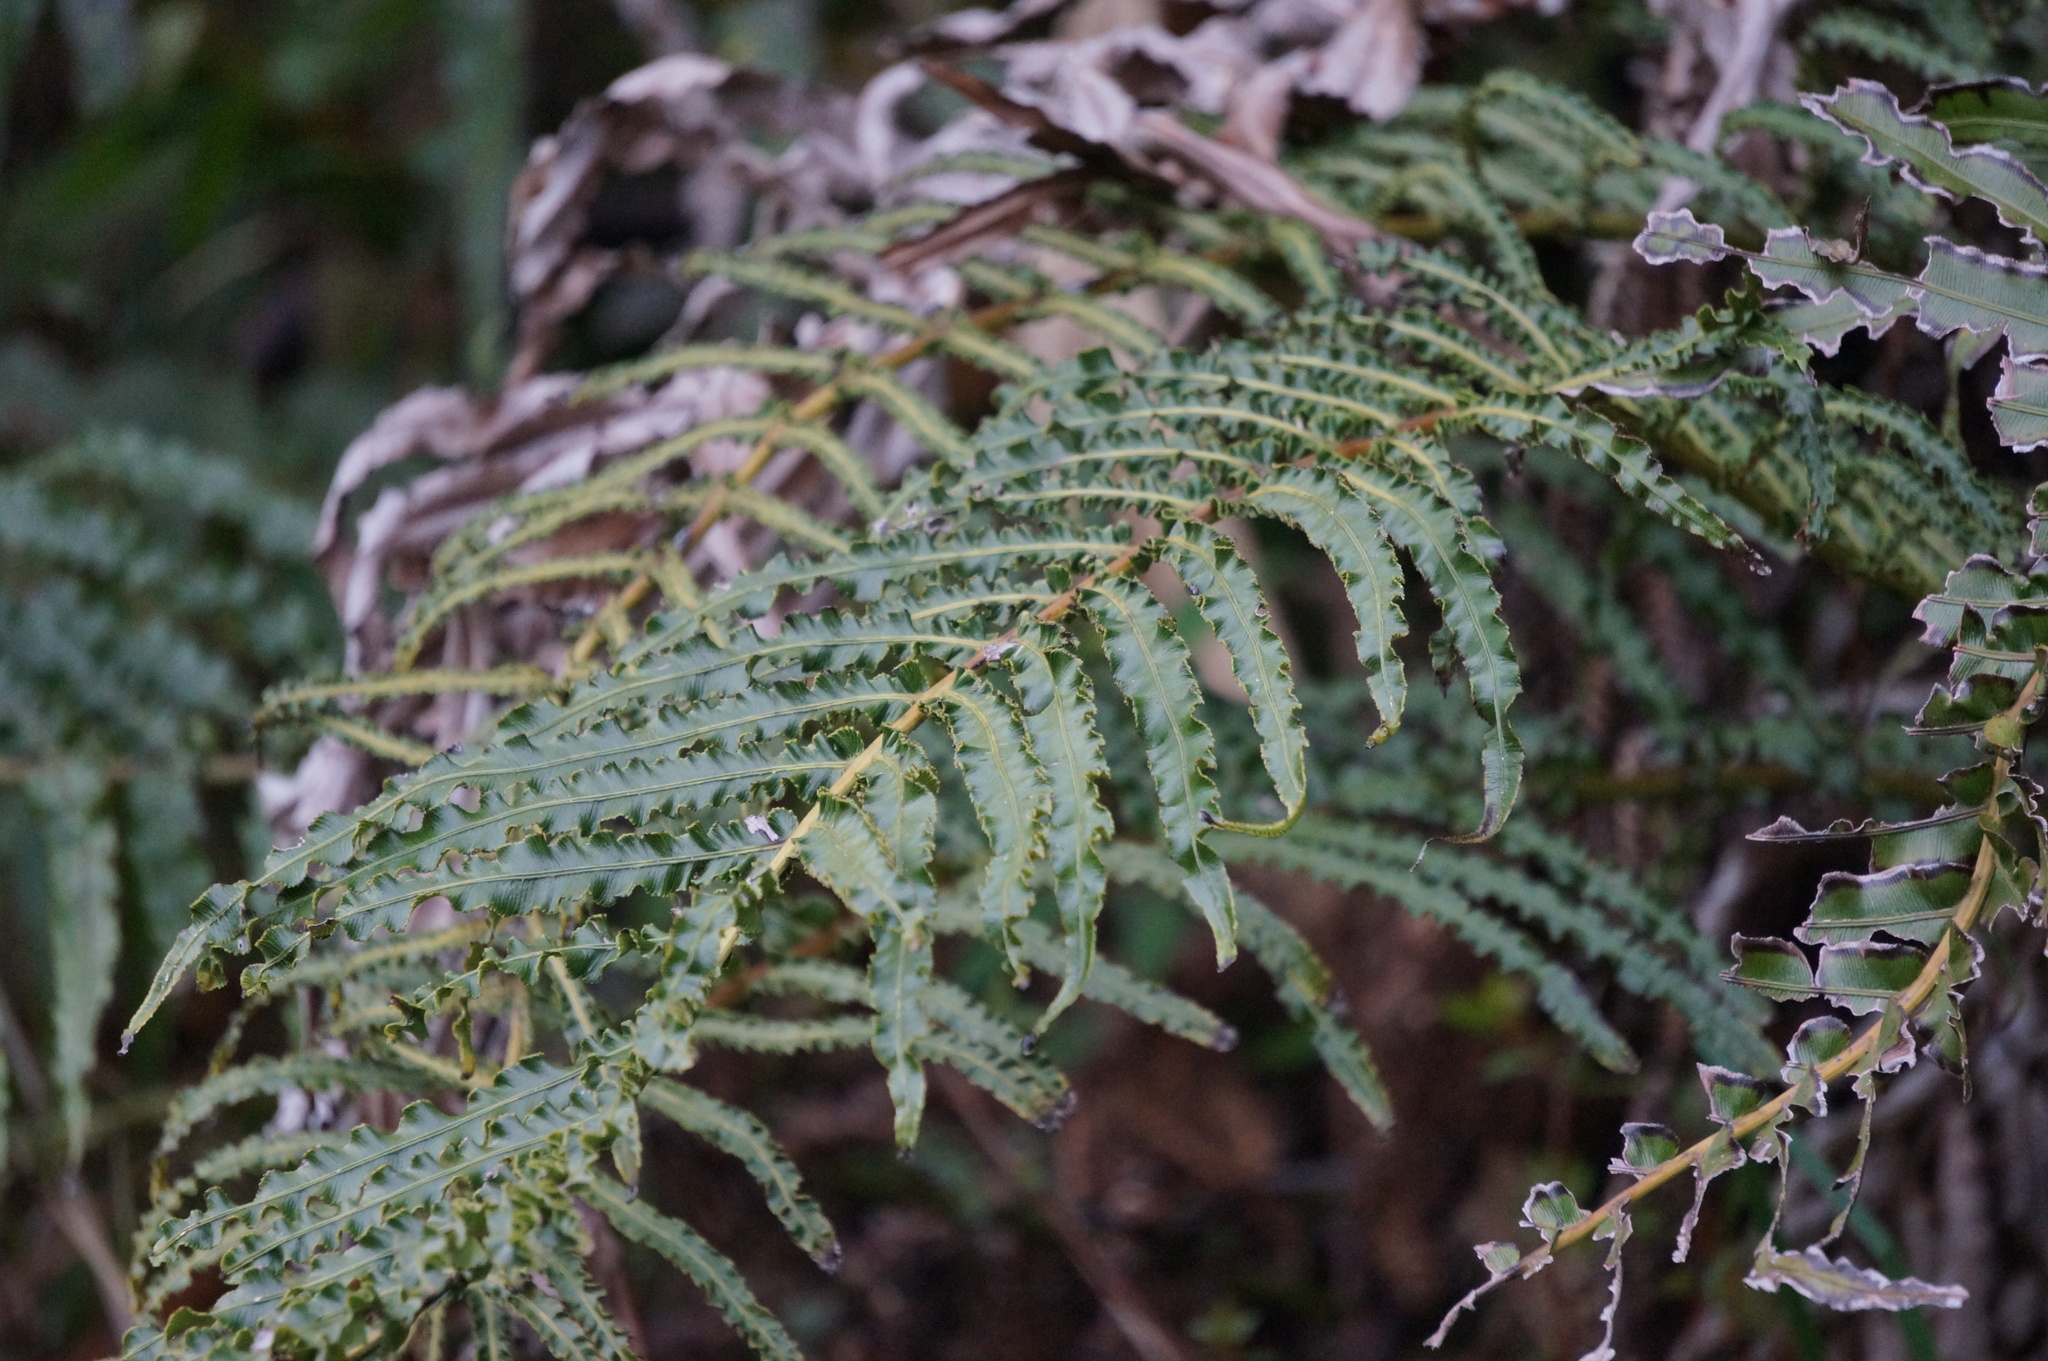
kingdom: Plantae
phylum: Tracheophyta
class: Polypodiopsida
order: Polypodiales
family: Blechnaceae
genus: Parablechnum
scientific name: Parablechnum novae-zelandiae
